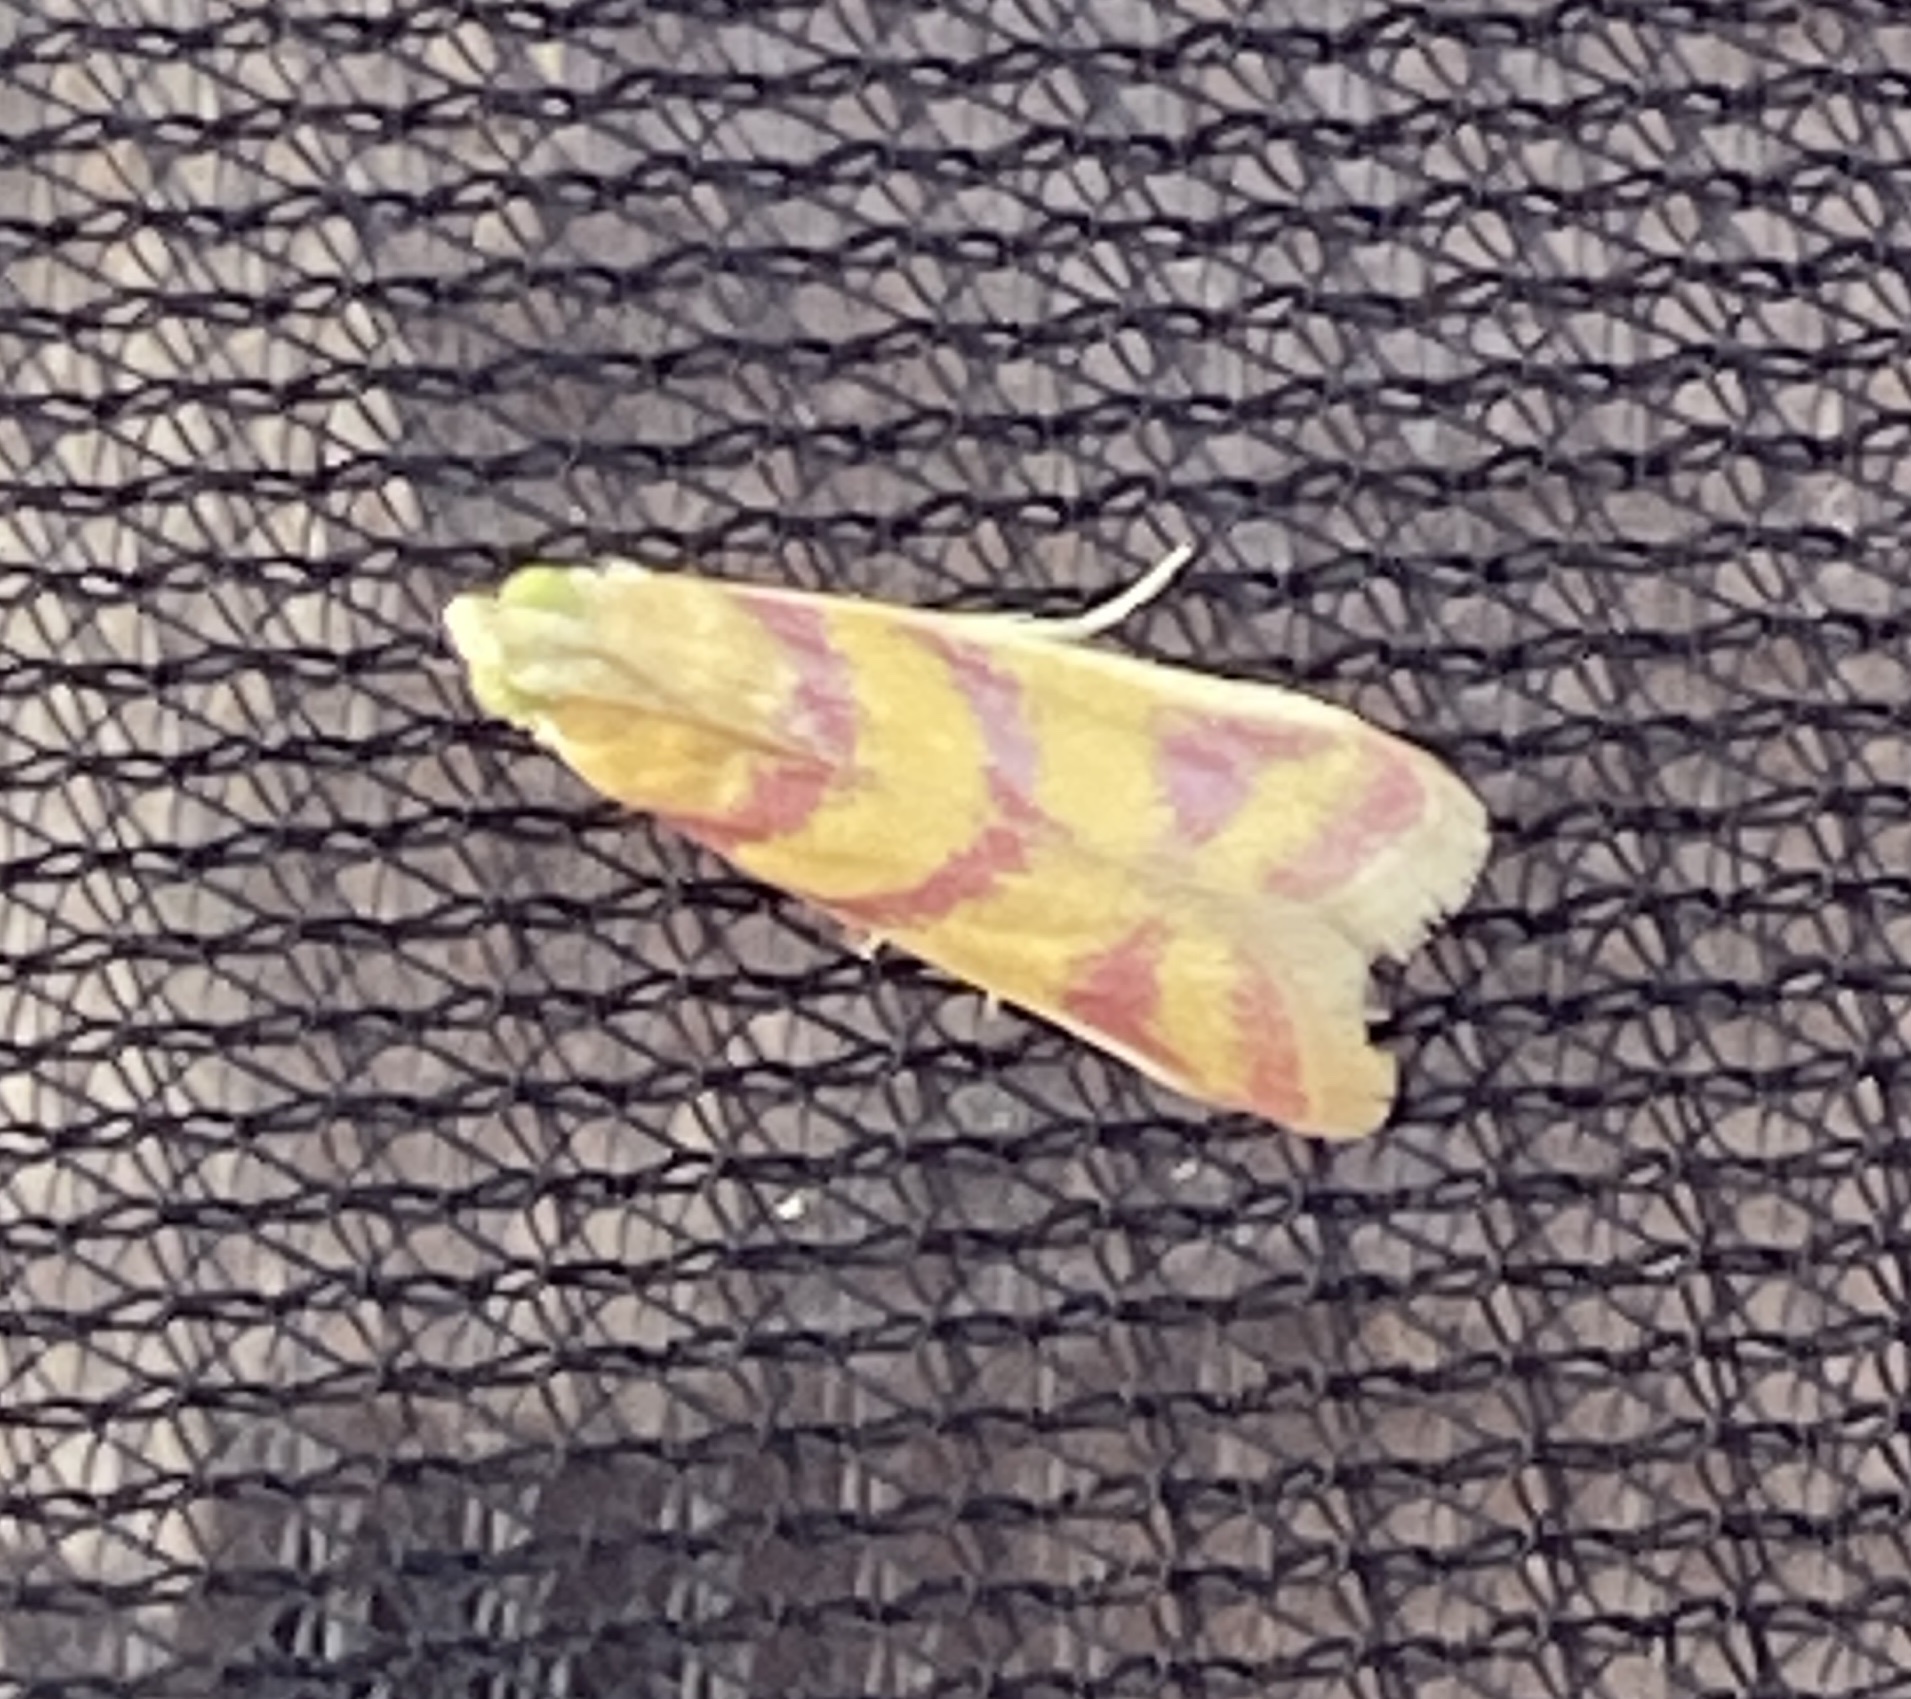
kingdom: Animalia
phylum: Arthropoda
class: Insecta
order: Lepidoptera
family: Pyralidae
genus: Ancylosis
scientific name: Ancylosis hellenica
